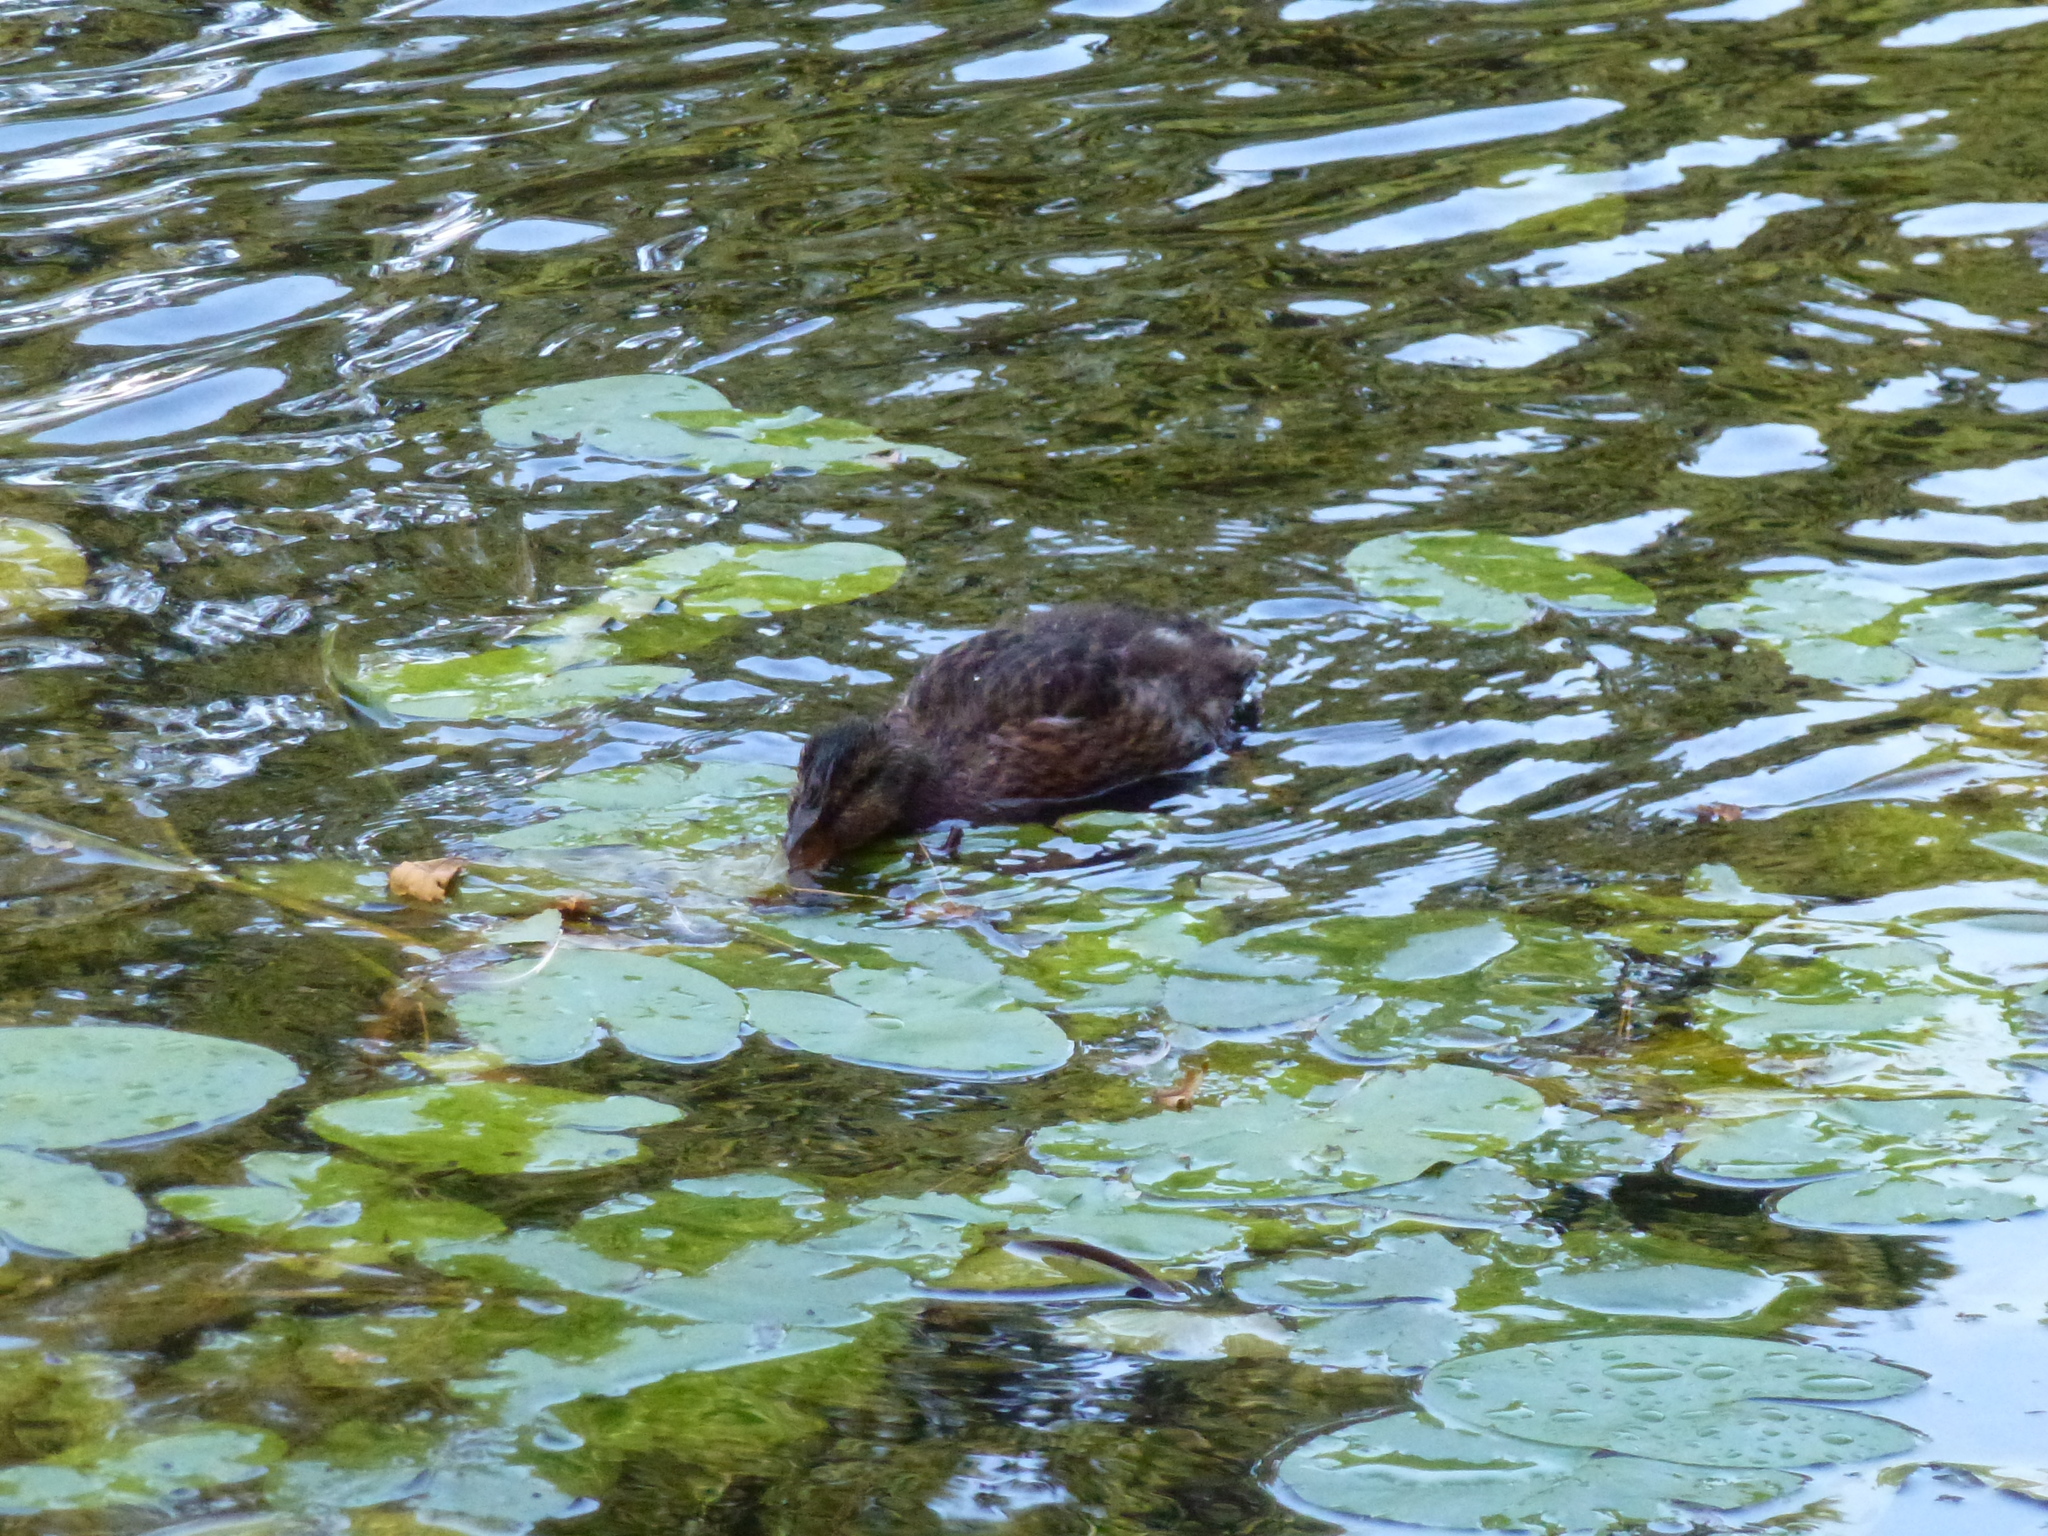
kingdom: Animalia
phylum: Chordata
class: Aves
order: Anseriformes
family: Anatidae
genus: Anas
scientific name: Anas platyrhynchos
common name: Mallard
